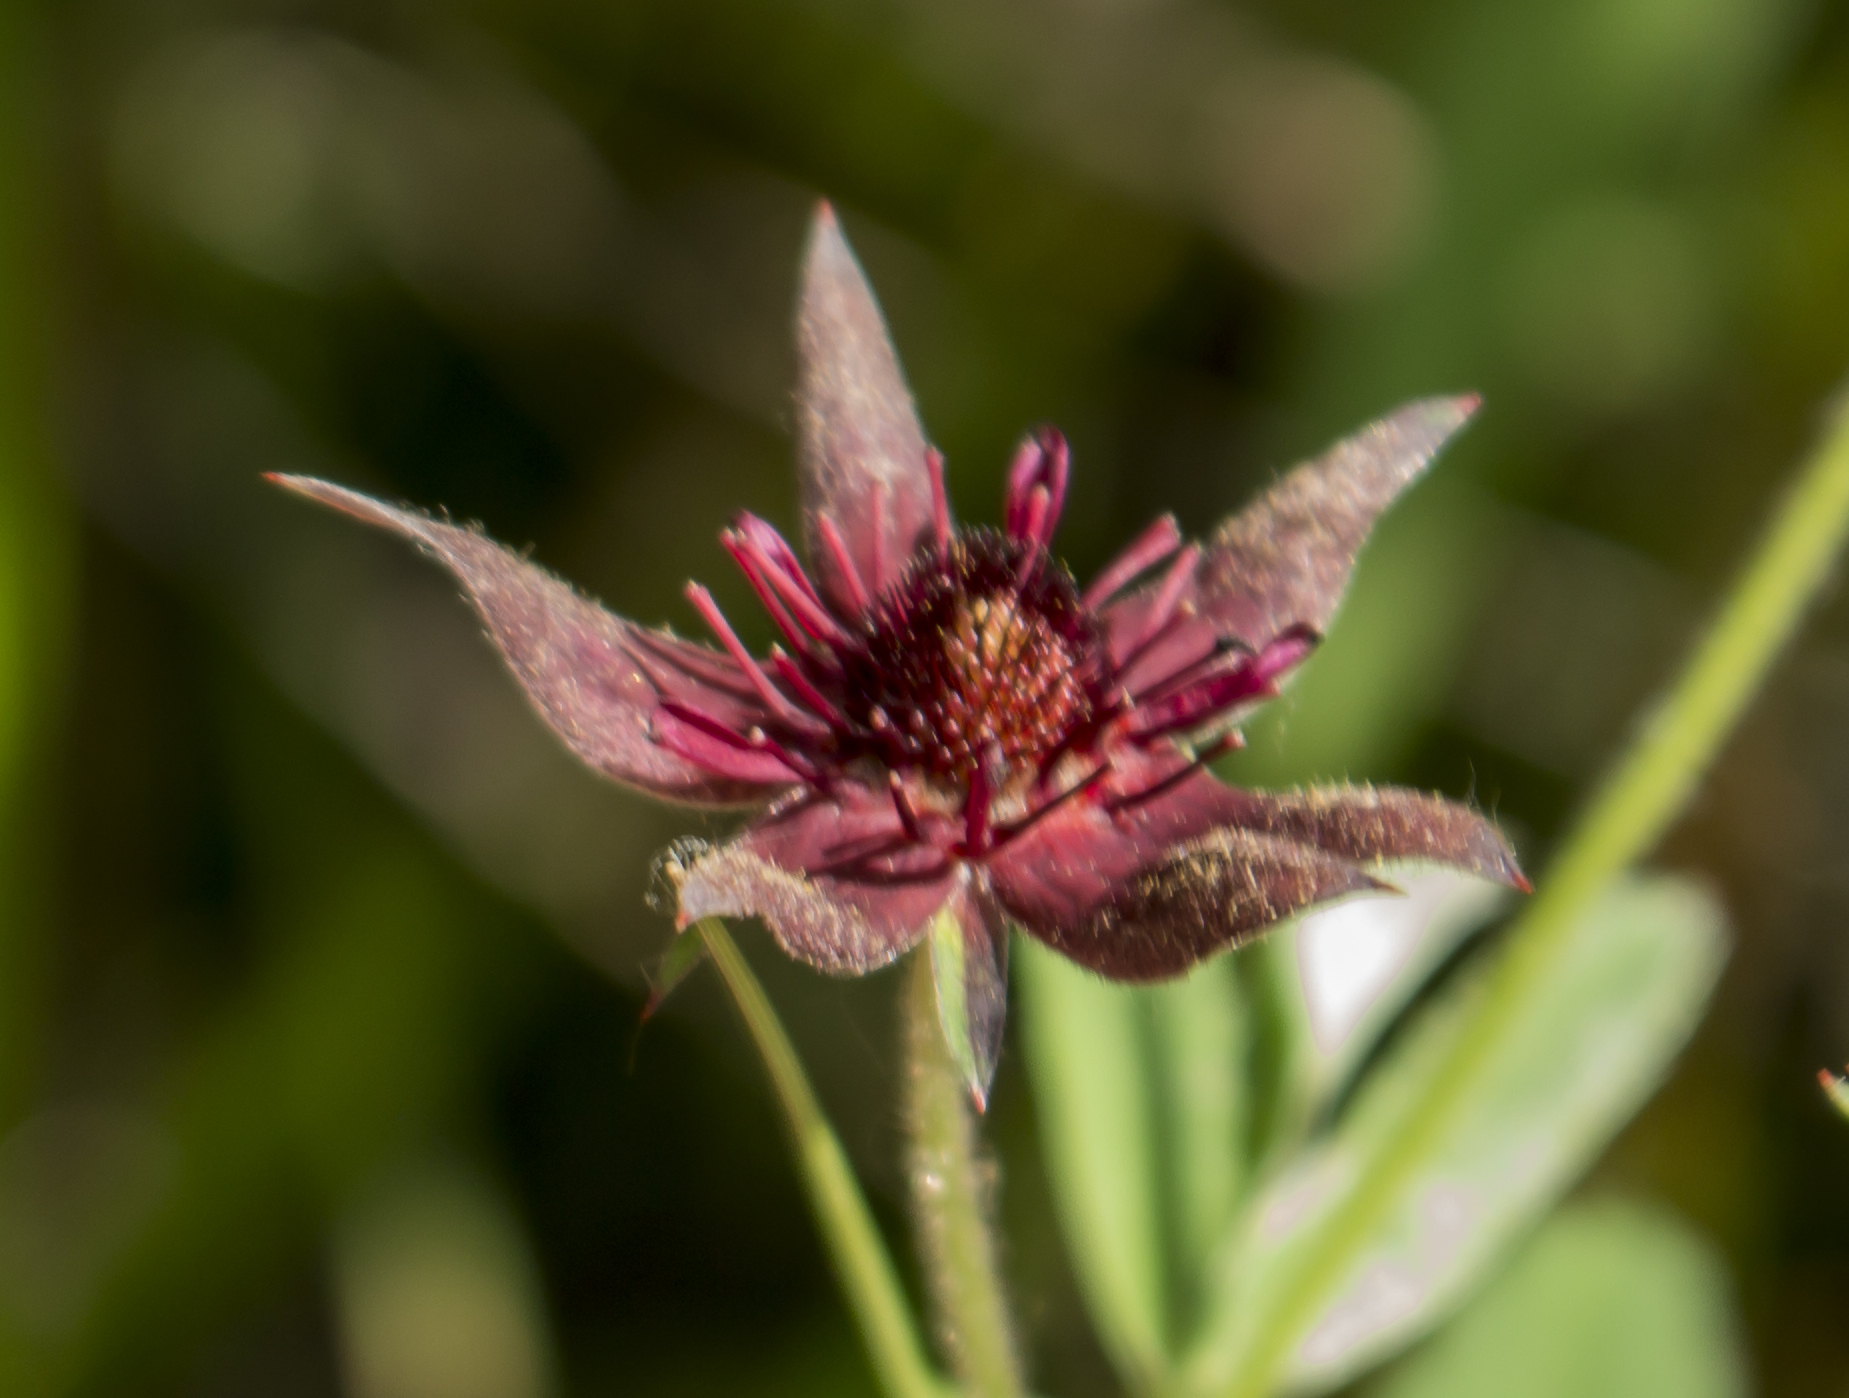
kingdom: Plantae
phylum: Tracheophyta
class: Magnoliopsida
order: Rosales
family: Rosaceae
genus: Comarum
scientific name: Comarum palustre
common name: Marsh cinquefoil
